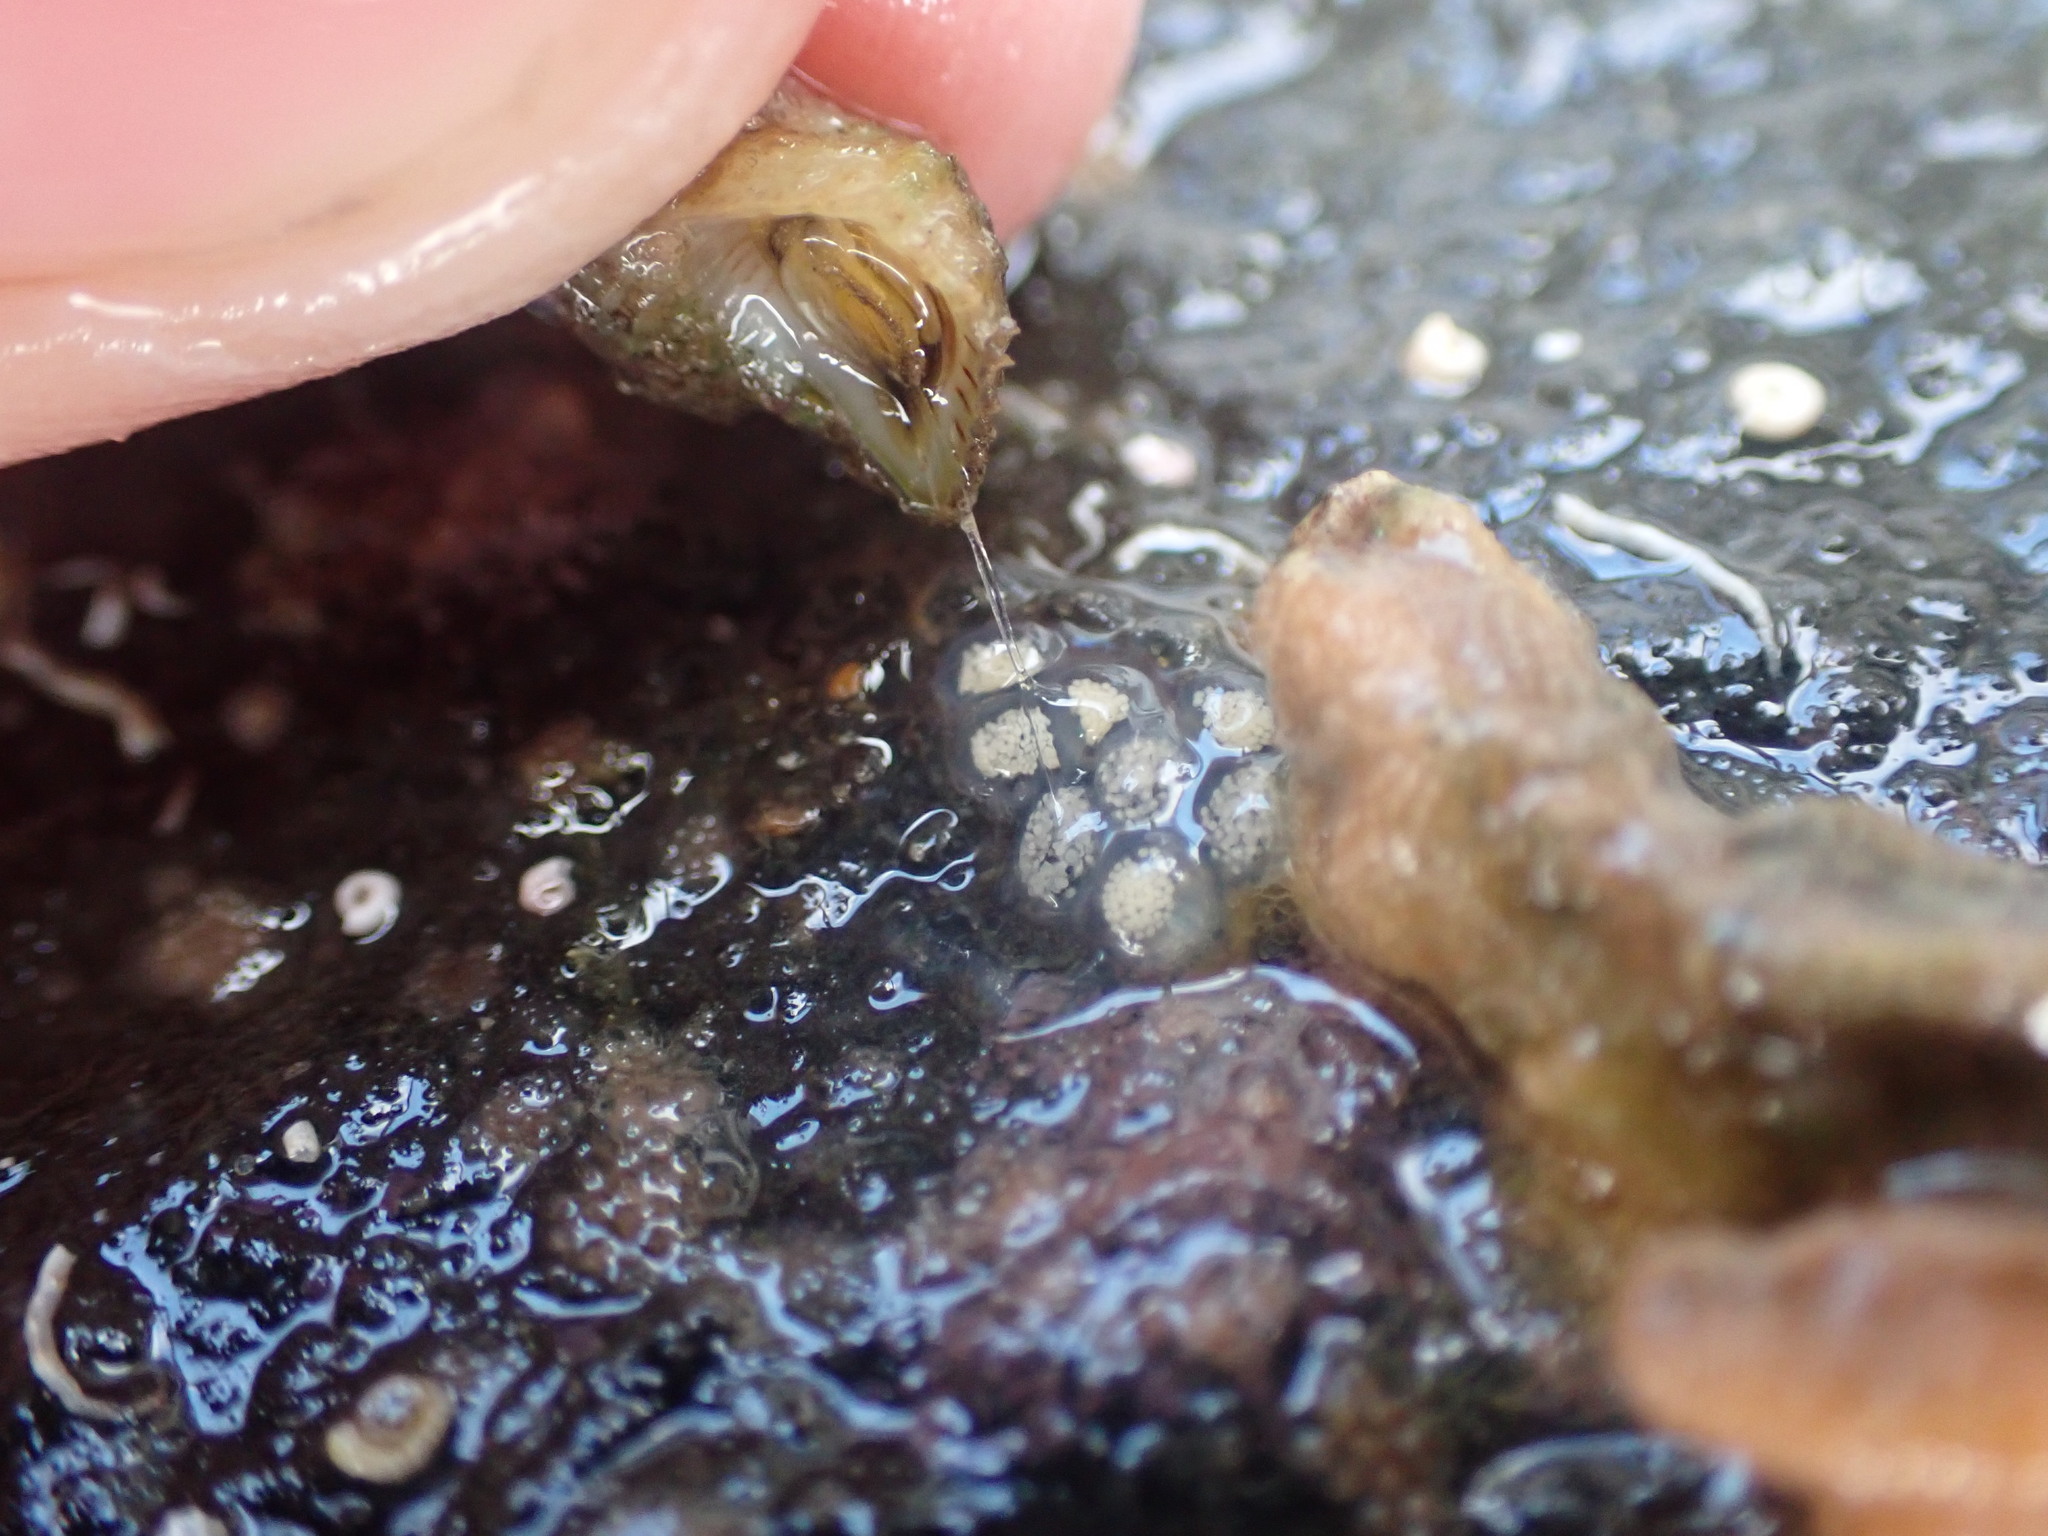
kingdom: Animalia
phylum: Mollusca
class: Gastropoda
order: Littorinimorpha
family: Capulidae
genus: Trichosirius
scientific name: Trichosirius inornatus
